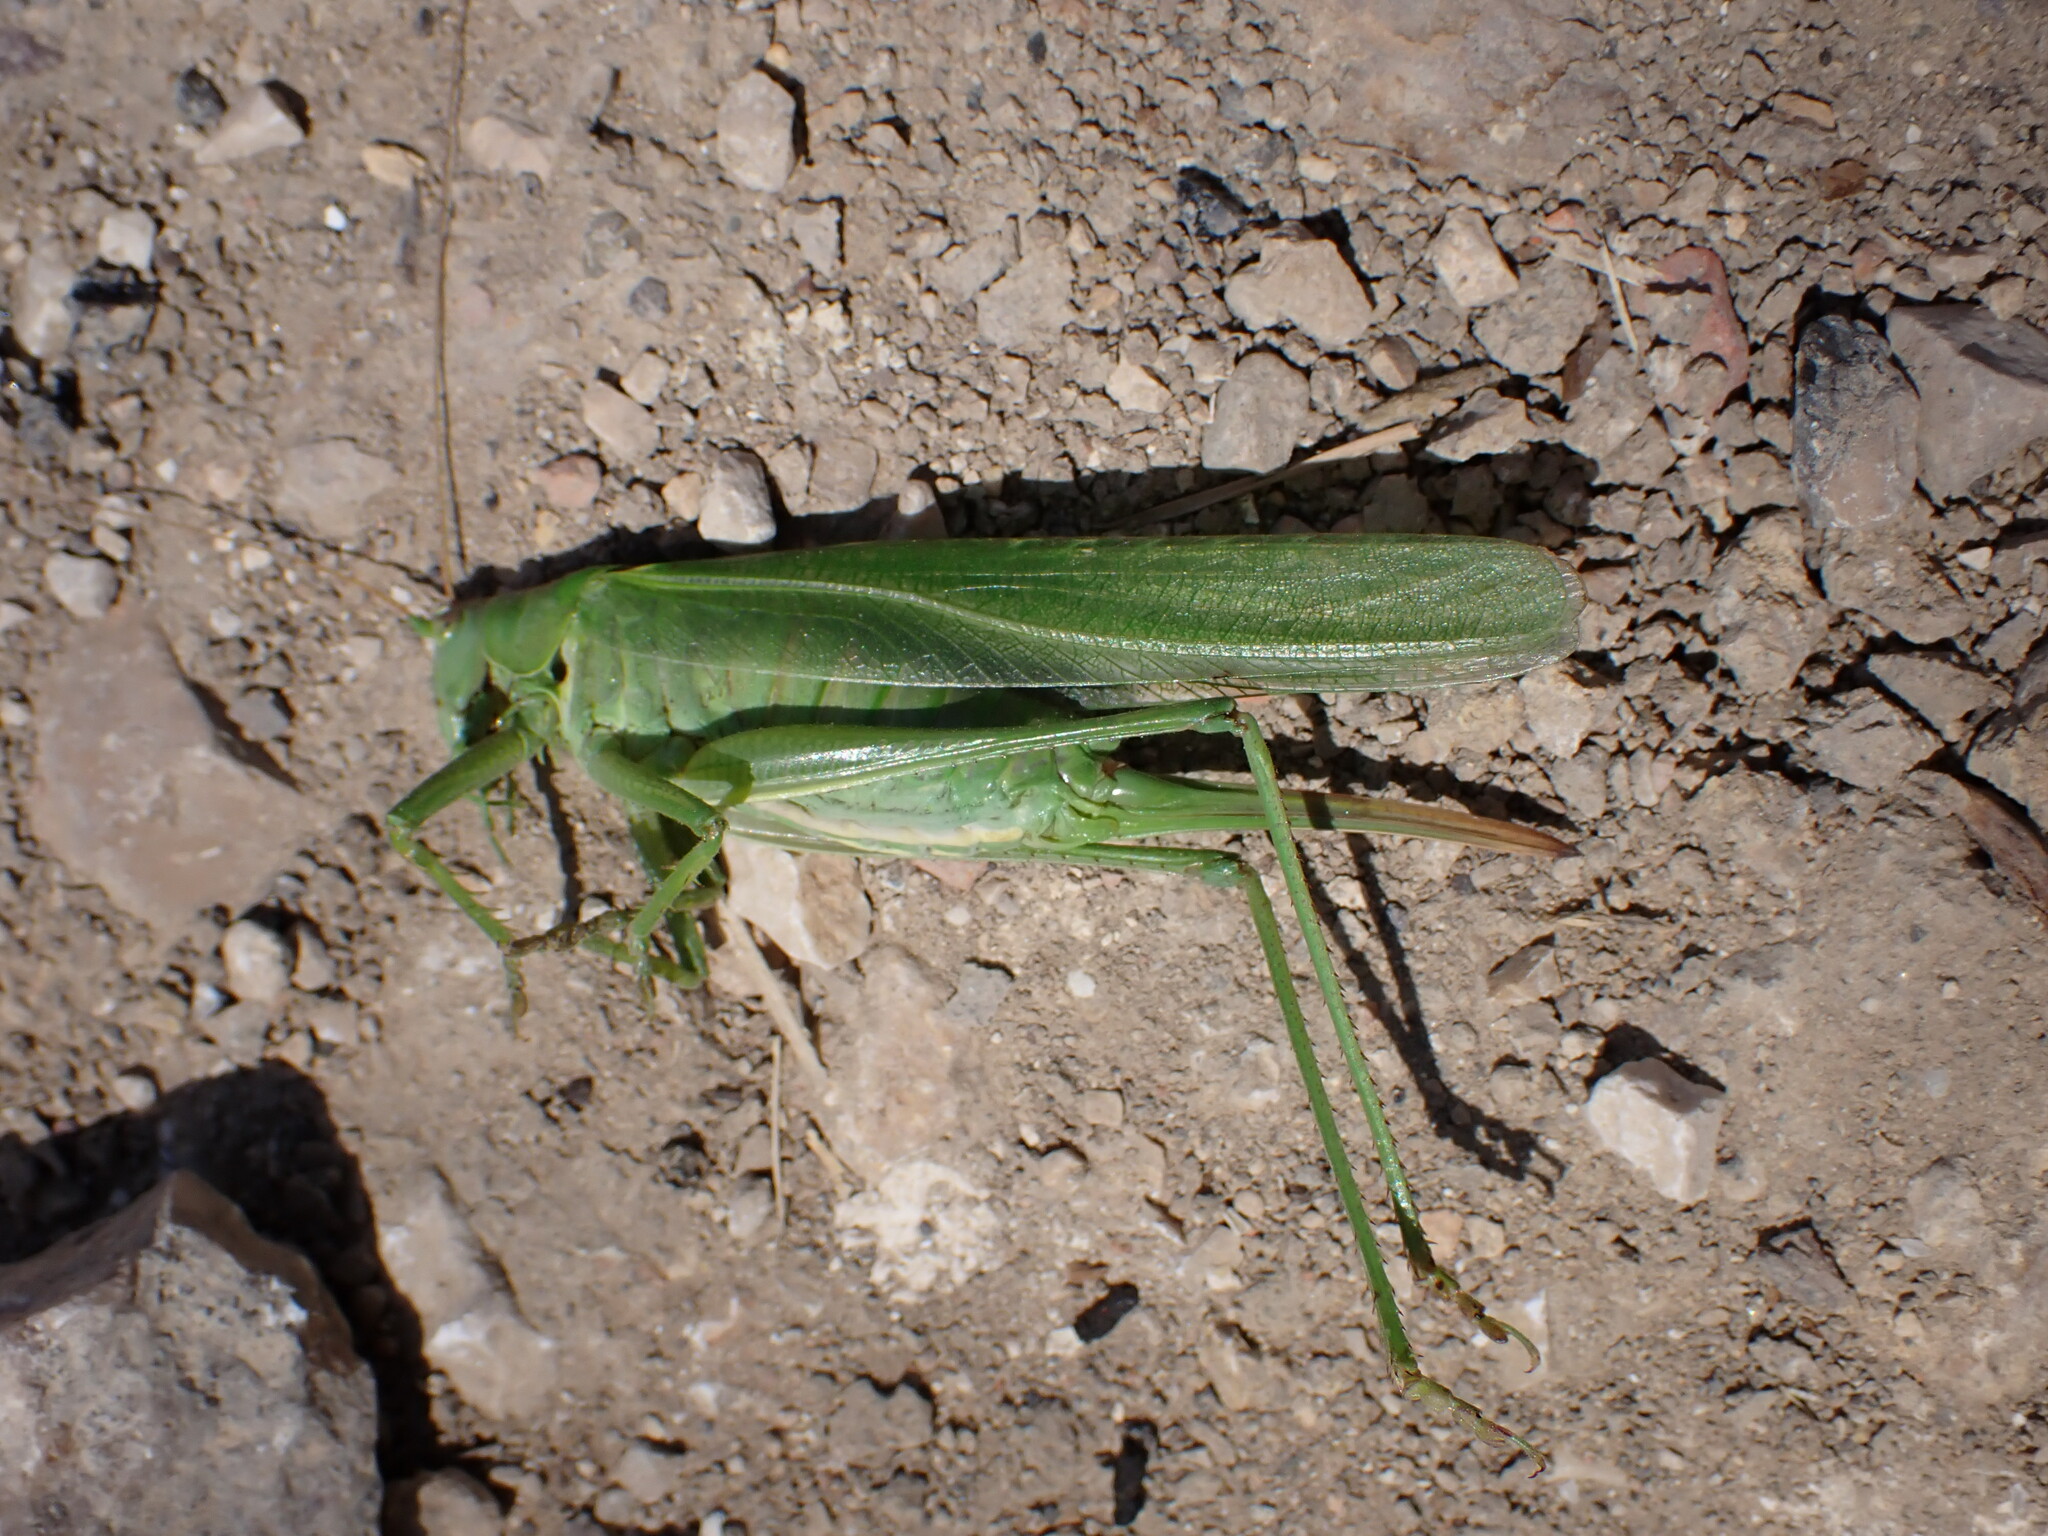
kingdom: Animalia
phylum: Arthropoda
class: Insecta
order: Orthoptera
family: Tettigoniidae
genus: Tettigonia
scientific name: Tettigonia viridissima
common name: Great green bush-cricket
